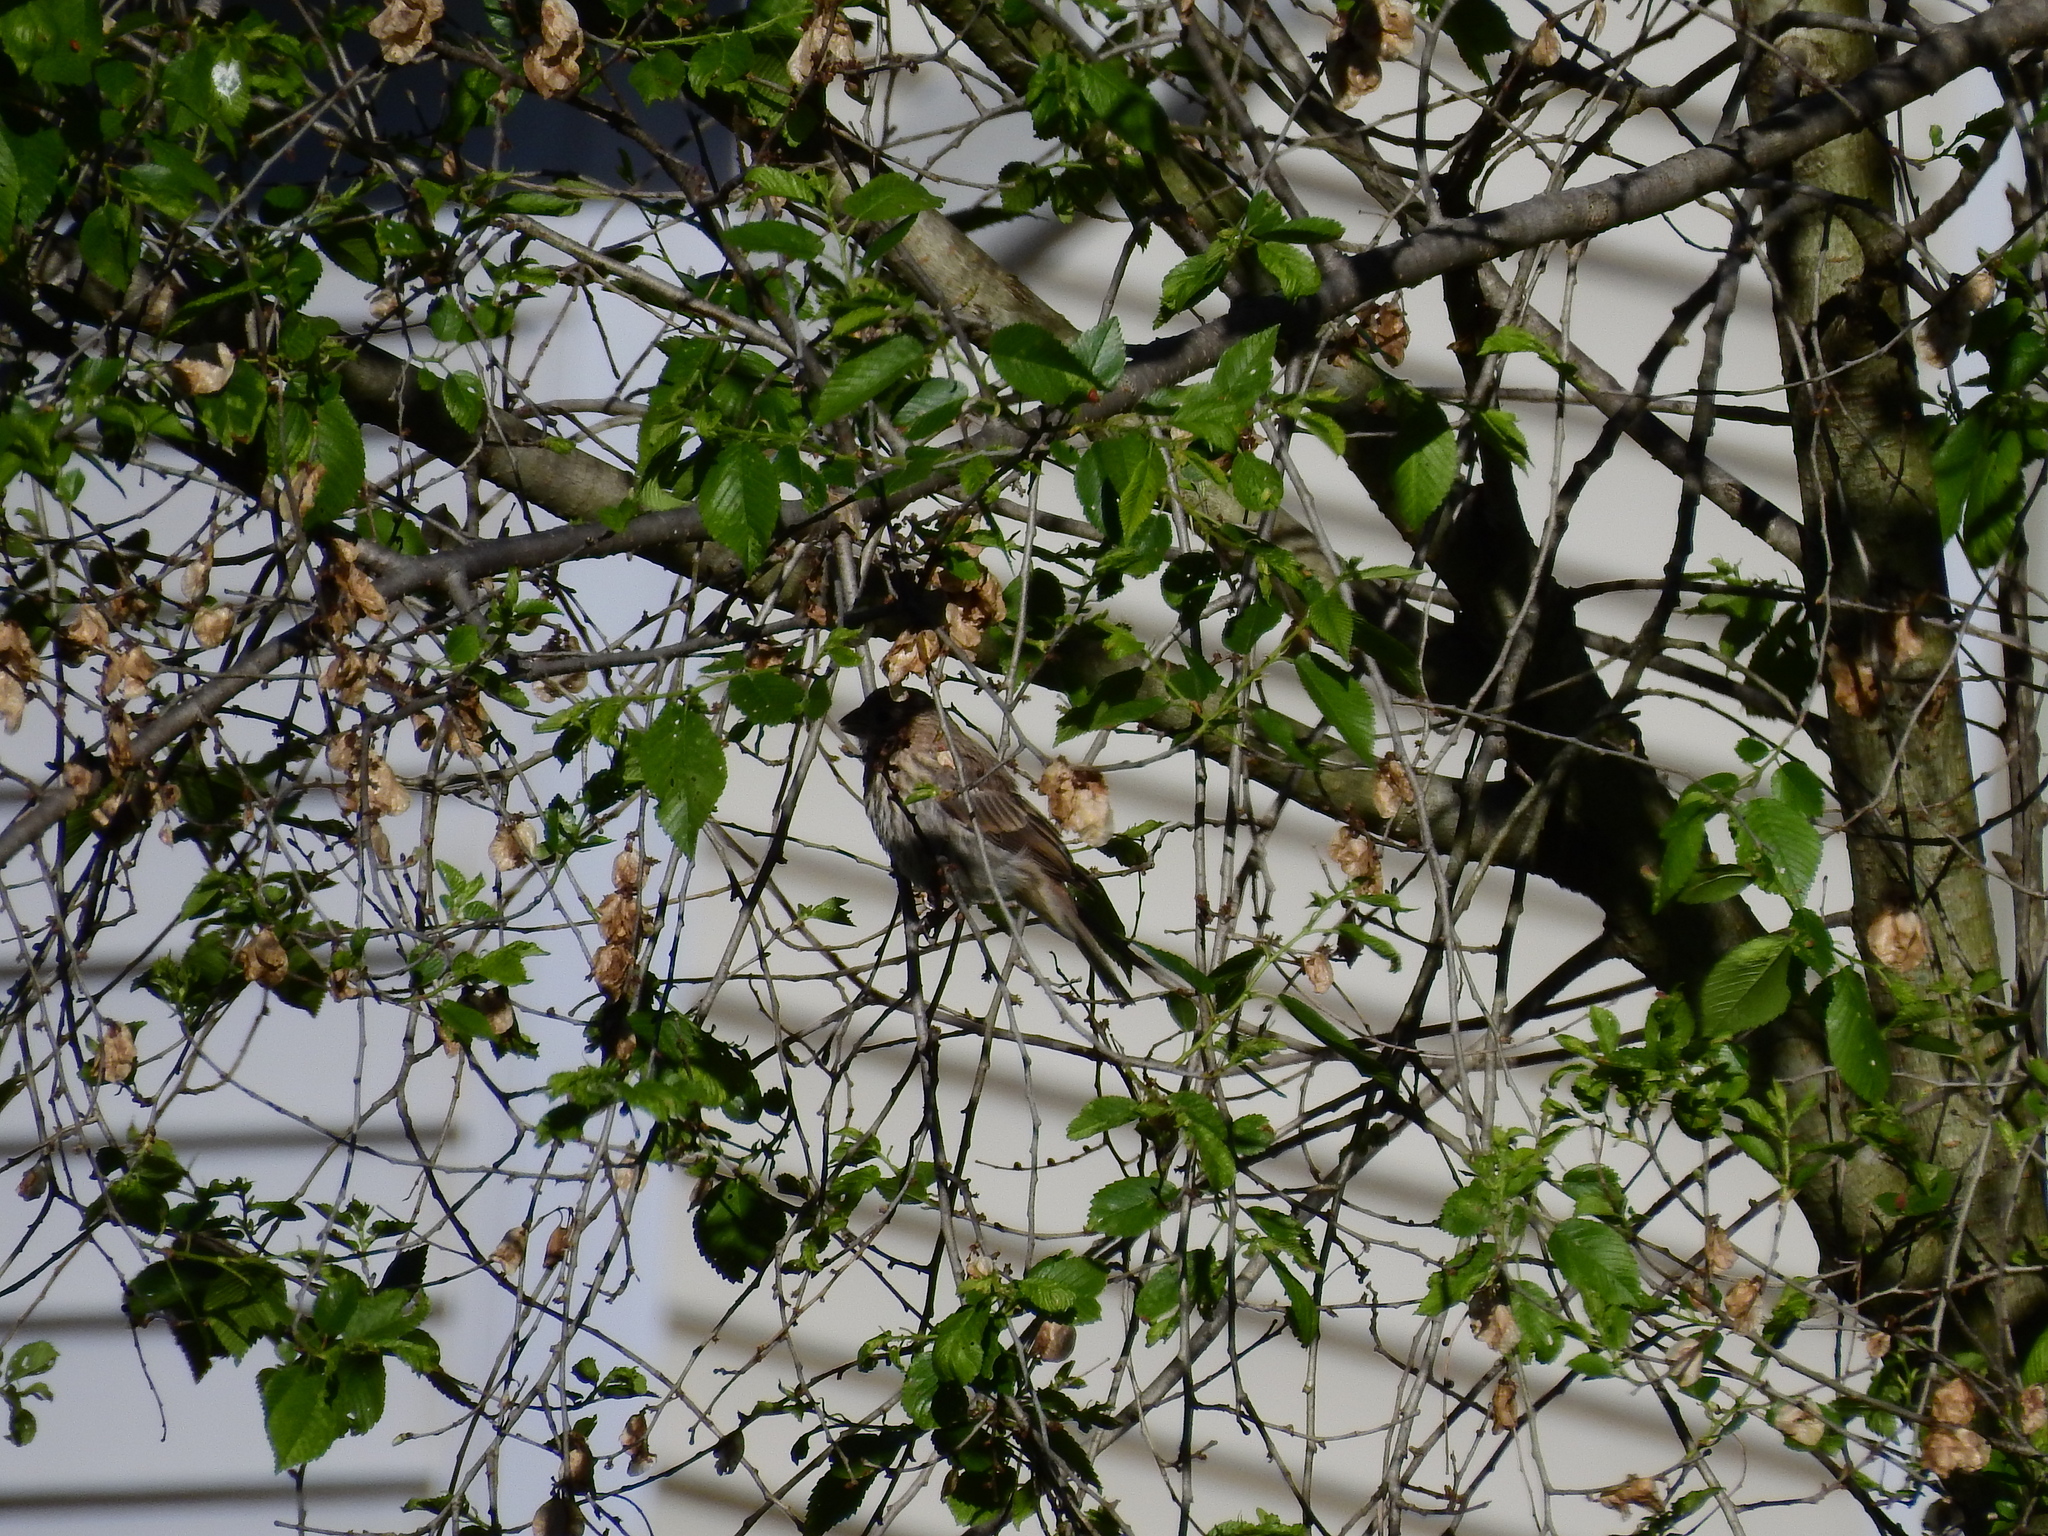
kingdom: Animalia
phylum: Chordata
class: Aves
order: Passeriformes
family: Fringillidae
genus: Haemorhous
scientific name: Haemorhous mexicanus
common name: House finch
